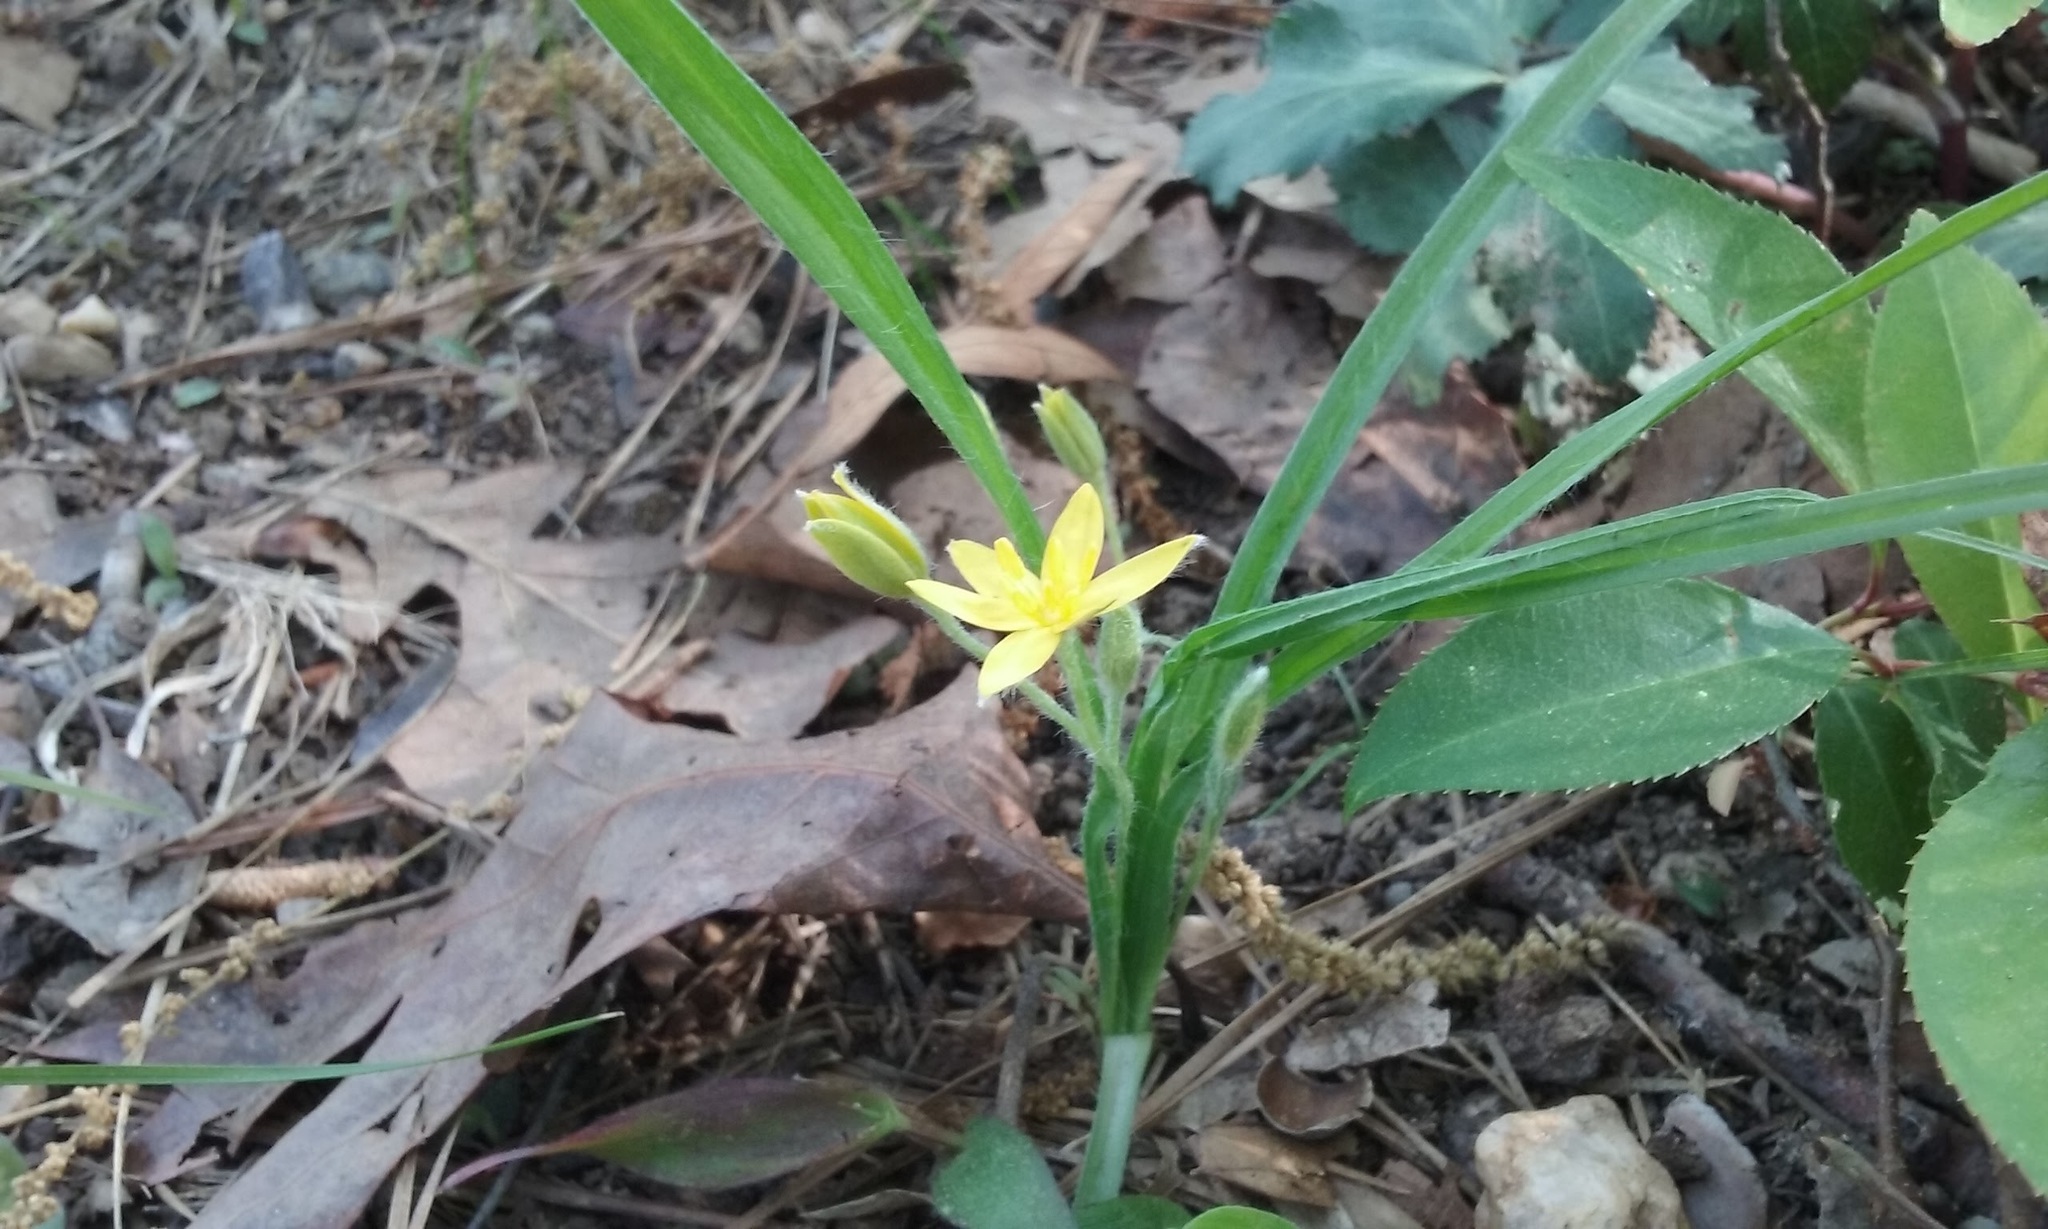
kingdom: Plantae
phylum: Tracheophyta
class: Liliopsida
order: Asparagales
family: Hypoxidaceae
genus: Hypoxis
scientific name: Hypoxis hirsuta
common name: Common goldstar
